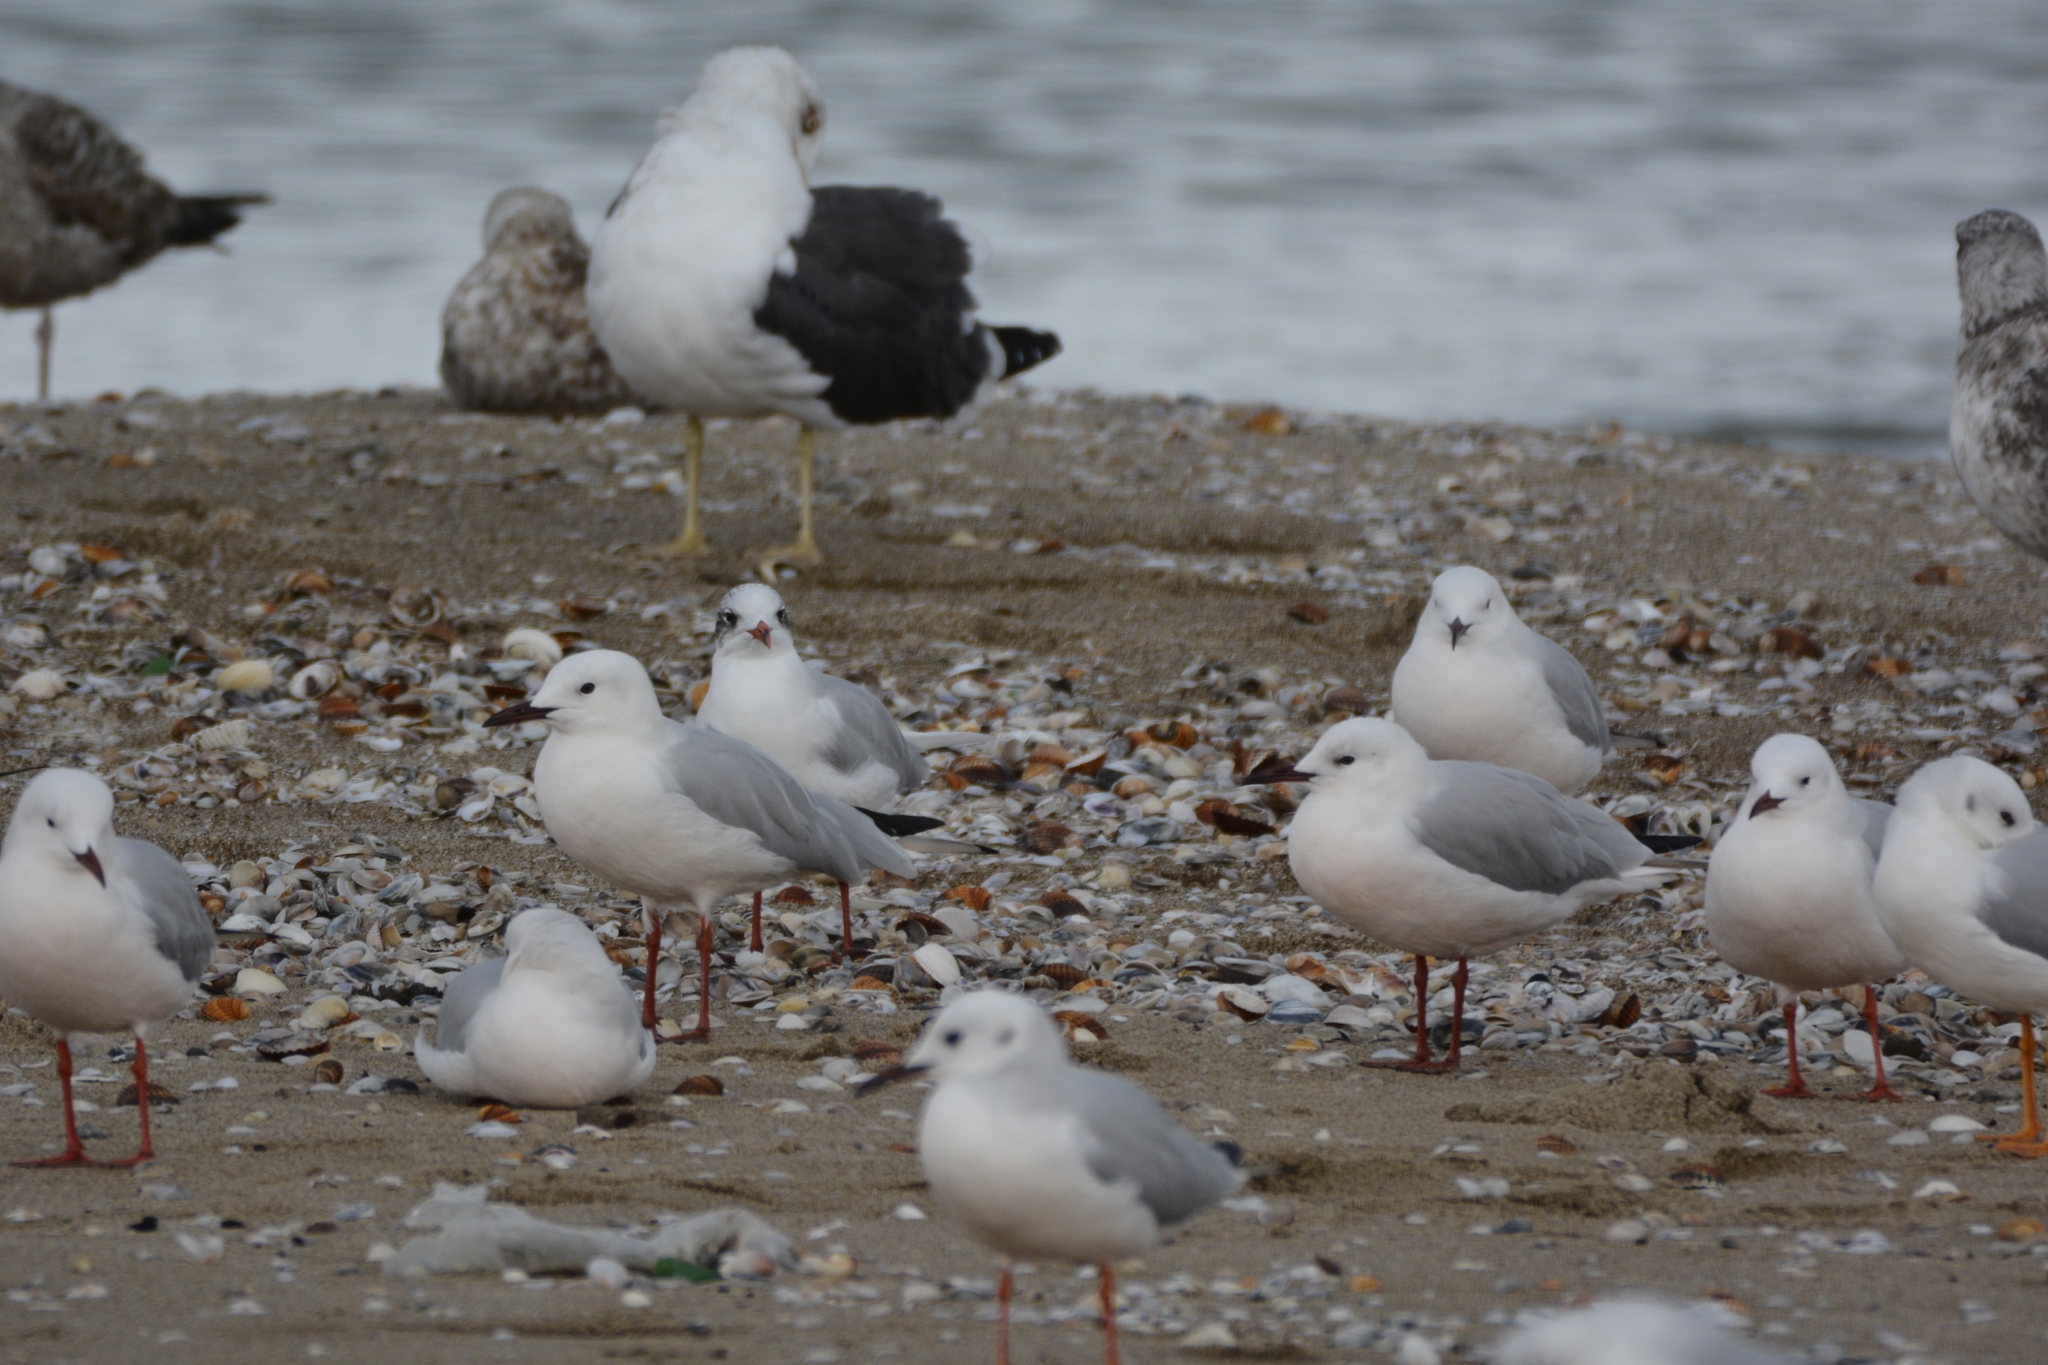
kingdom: Animalia
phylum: Chordata
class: Aves
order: Charadriiformes
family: Laridae
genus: Chroicocephalus
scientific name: Chroicocephalus genei
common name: Slender-billed gull
